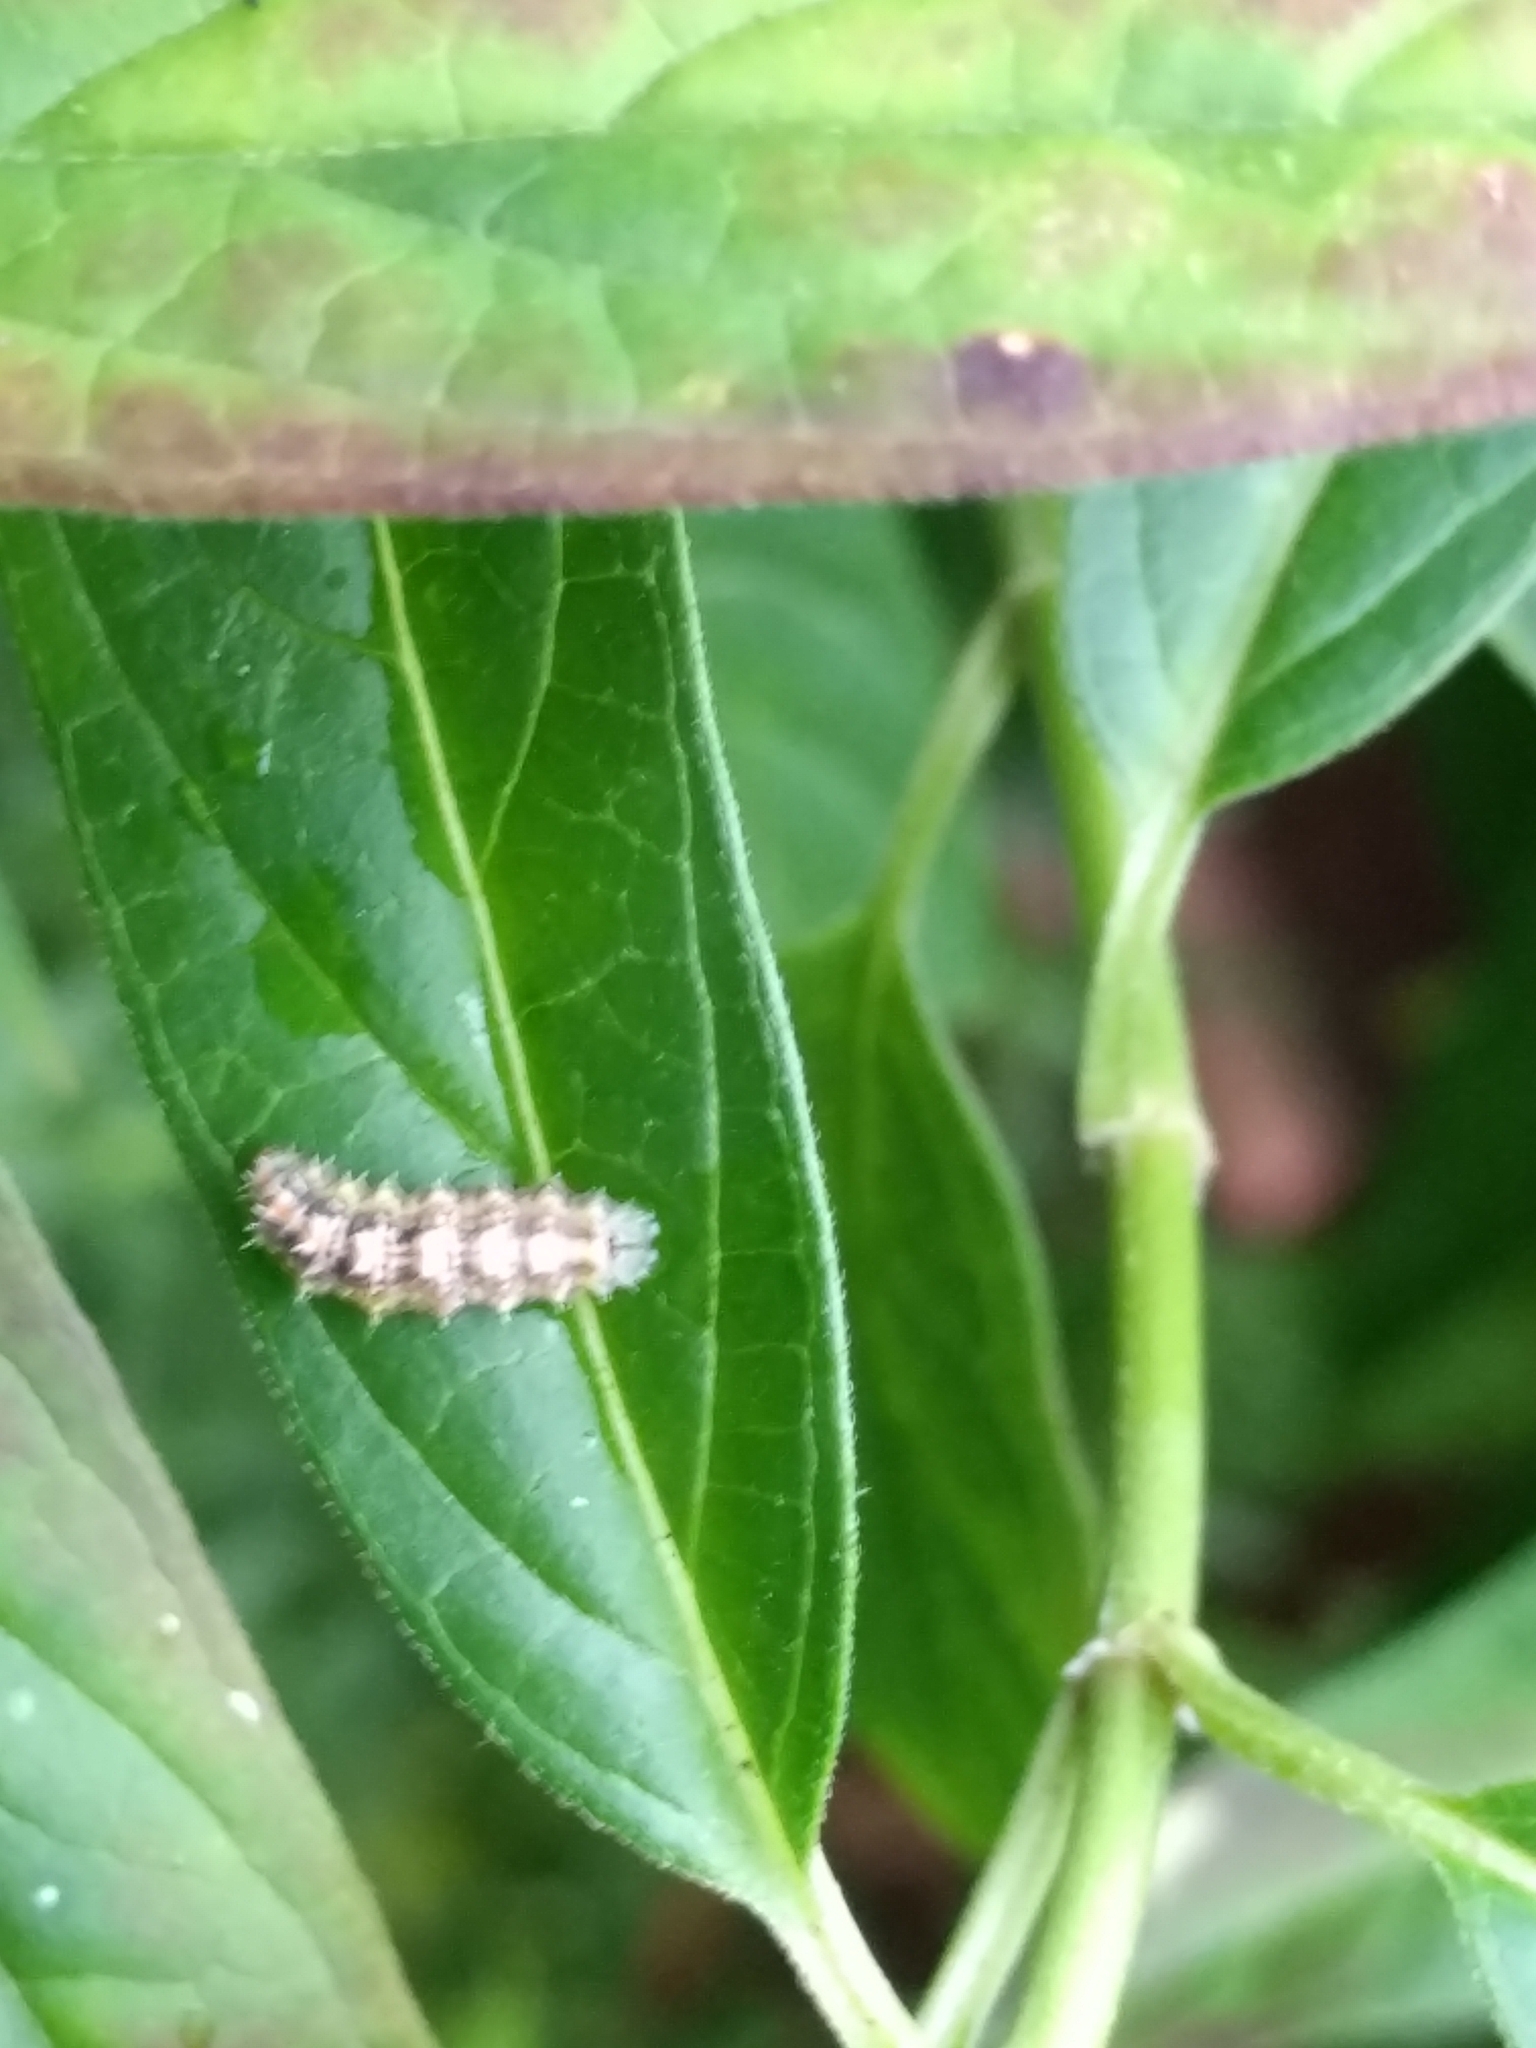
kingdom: Animalia
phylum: Arthropoda
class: Insecta
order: Diptera
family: Syrphidae
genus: Dioprosopa
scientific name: Dioprosopa clavatus
